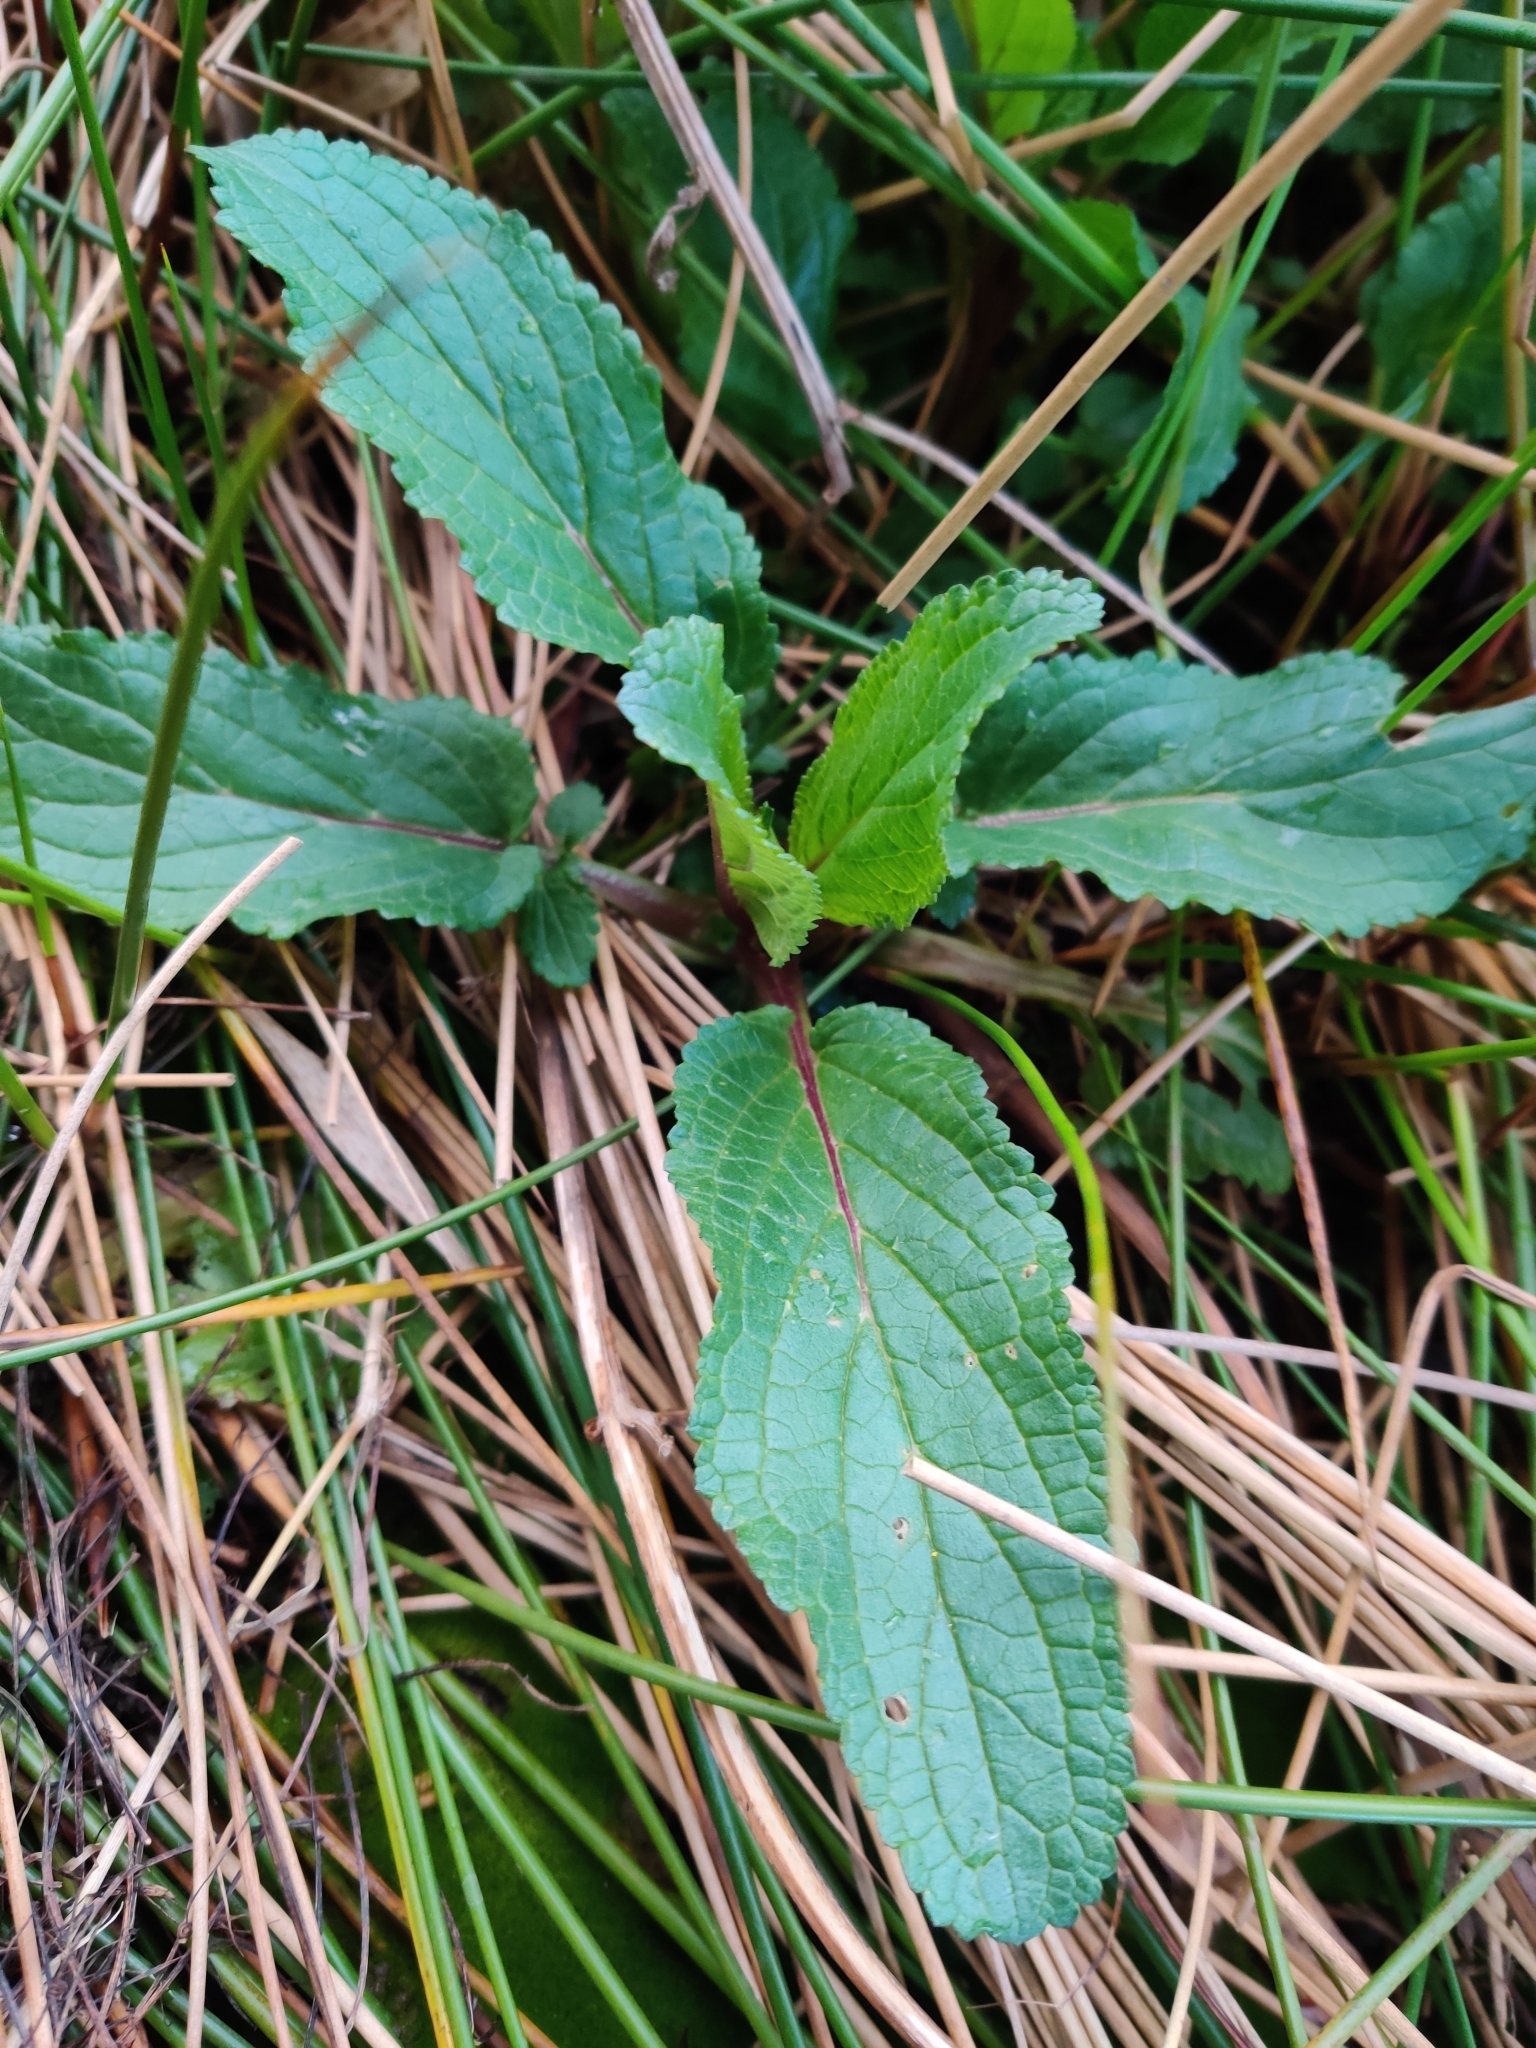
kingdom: Plantae
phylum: Tracheophyta
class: Magnoliopsida
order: Lamiales
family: Scrophulariaceae
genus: Scrophularia
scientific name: Scrophularia auriculata
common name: Water betony
